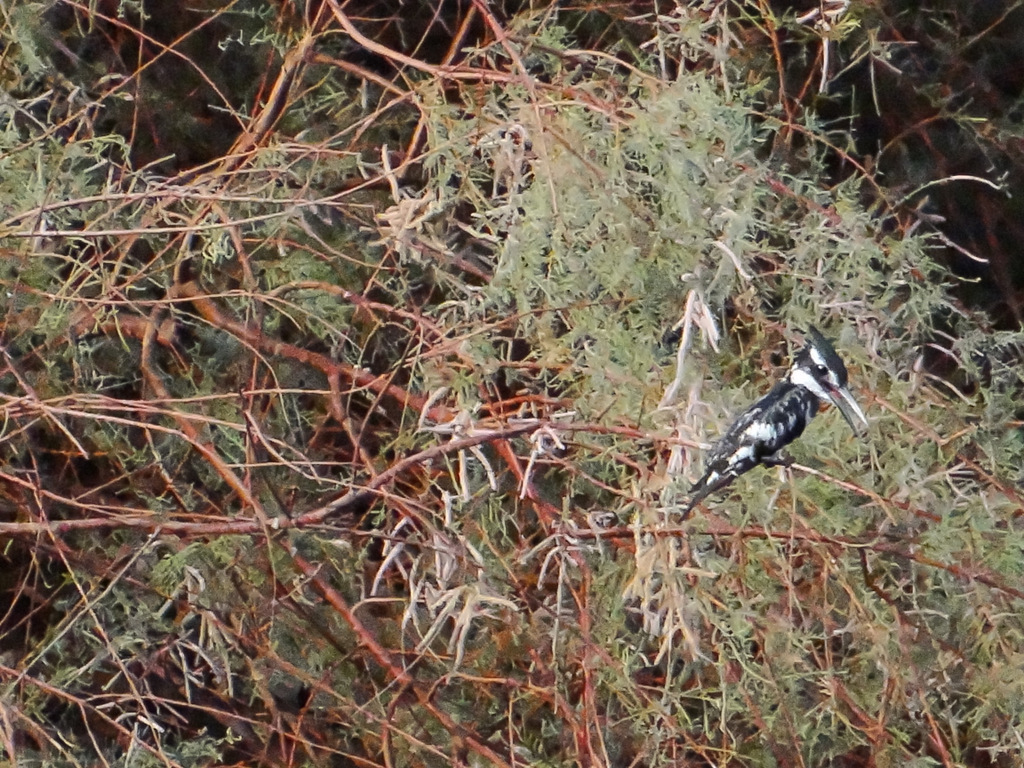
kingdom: Animalia
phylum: Chordata
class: Aves
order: Coraciiformes
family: Alcedinidae
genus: Ceryle
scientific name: Ceryle rudis
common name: Pied kingfisher
